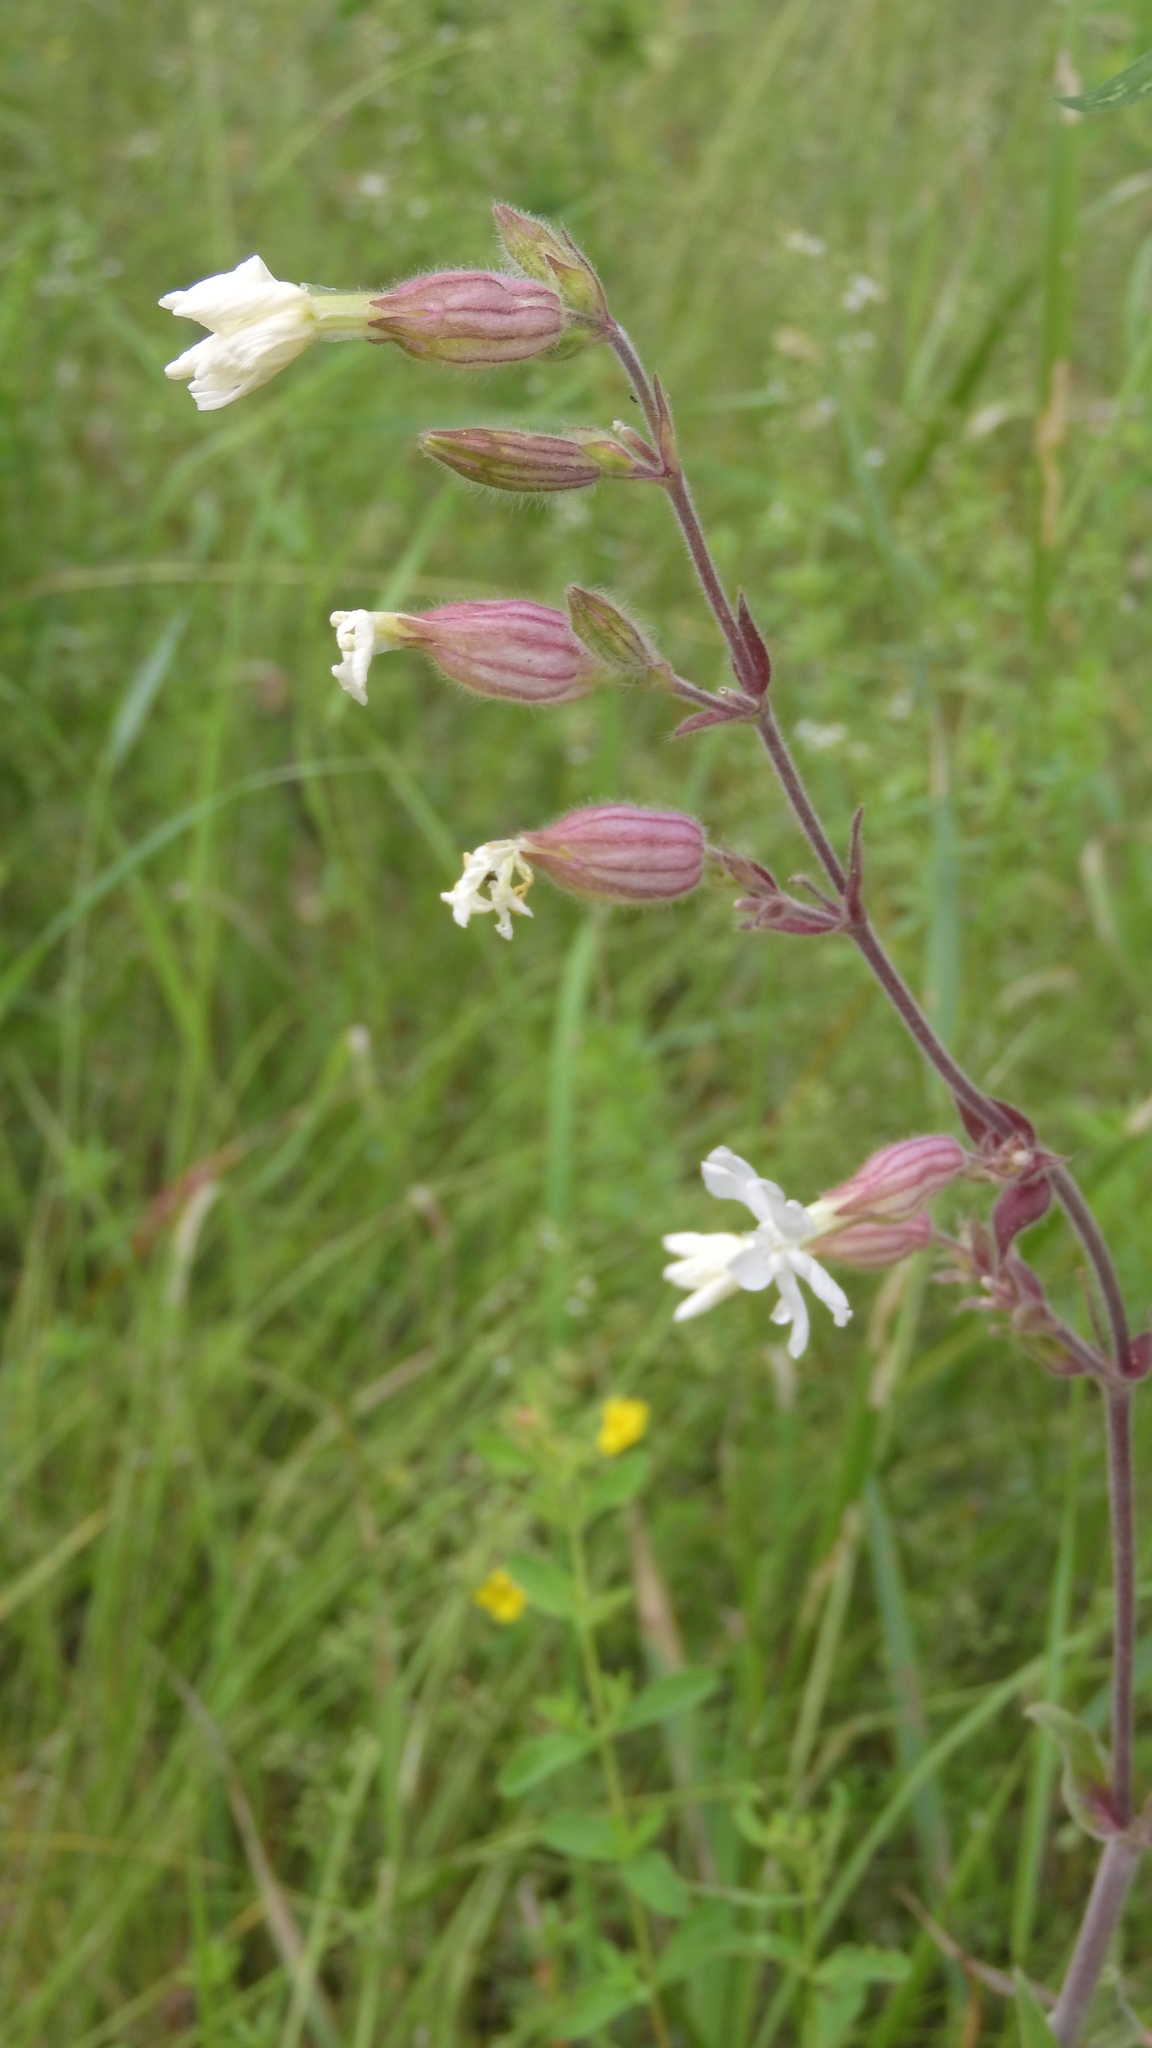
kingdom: Plantae
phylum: Tracheophyta
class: Magnoliopsida
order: Caryophyllales
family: Caryophyllaceae
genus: Silene
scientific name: Silene latifolia
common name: White campion
